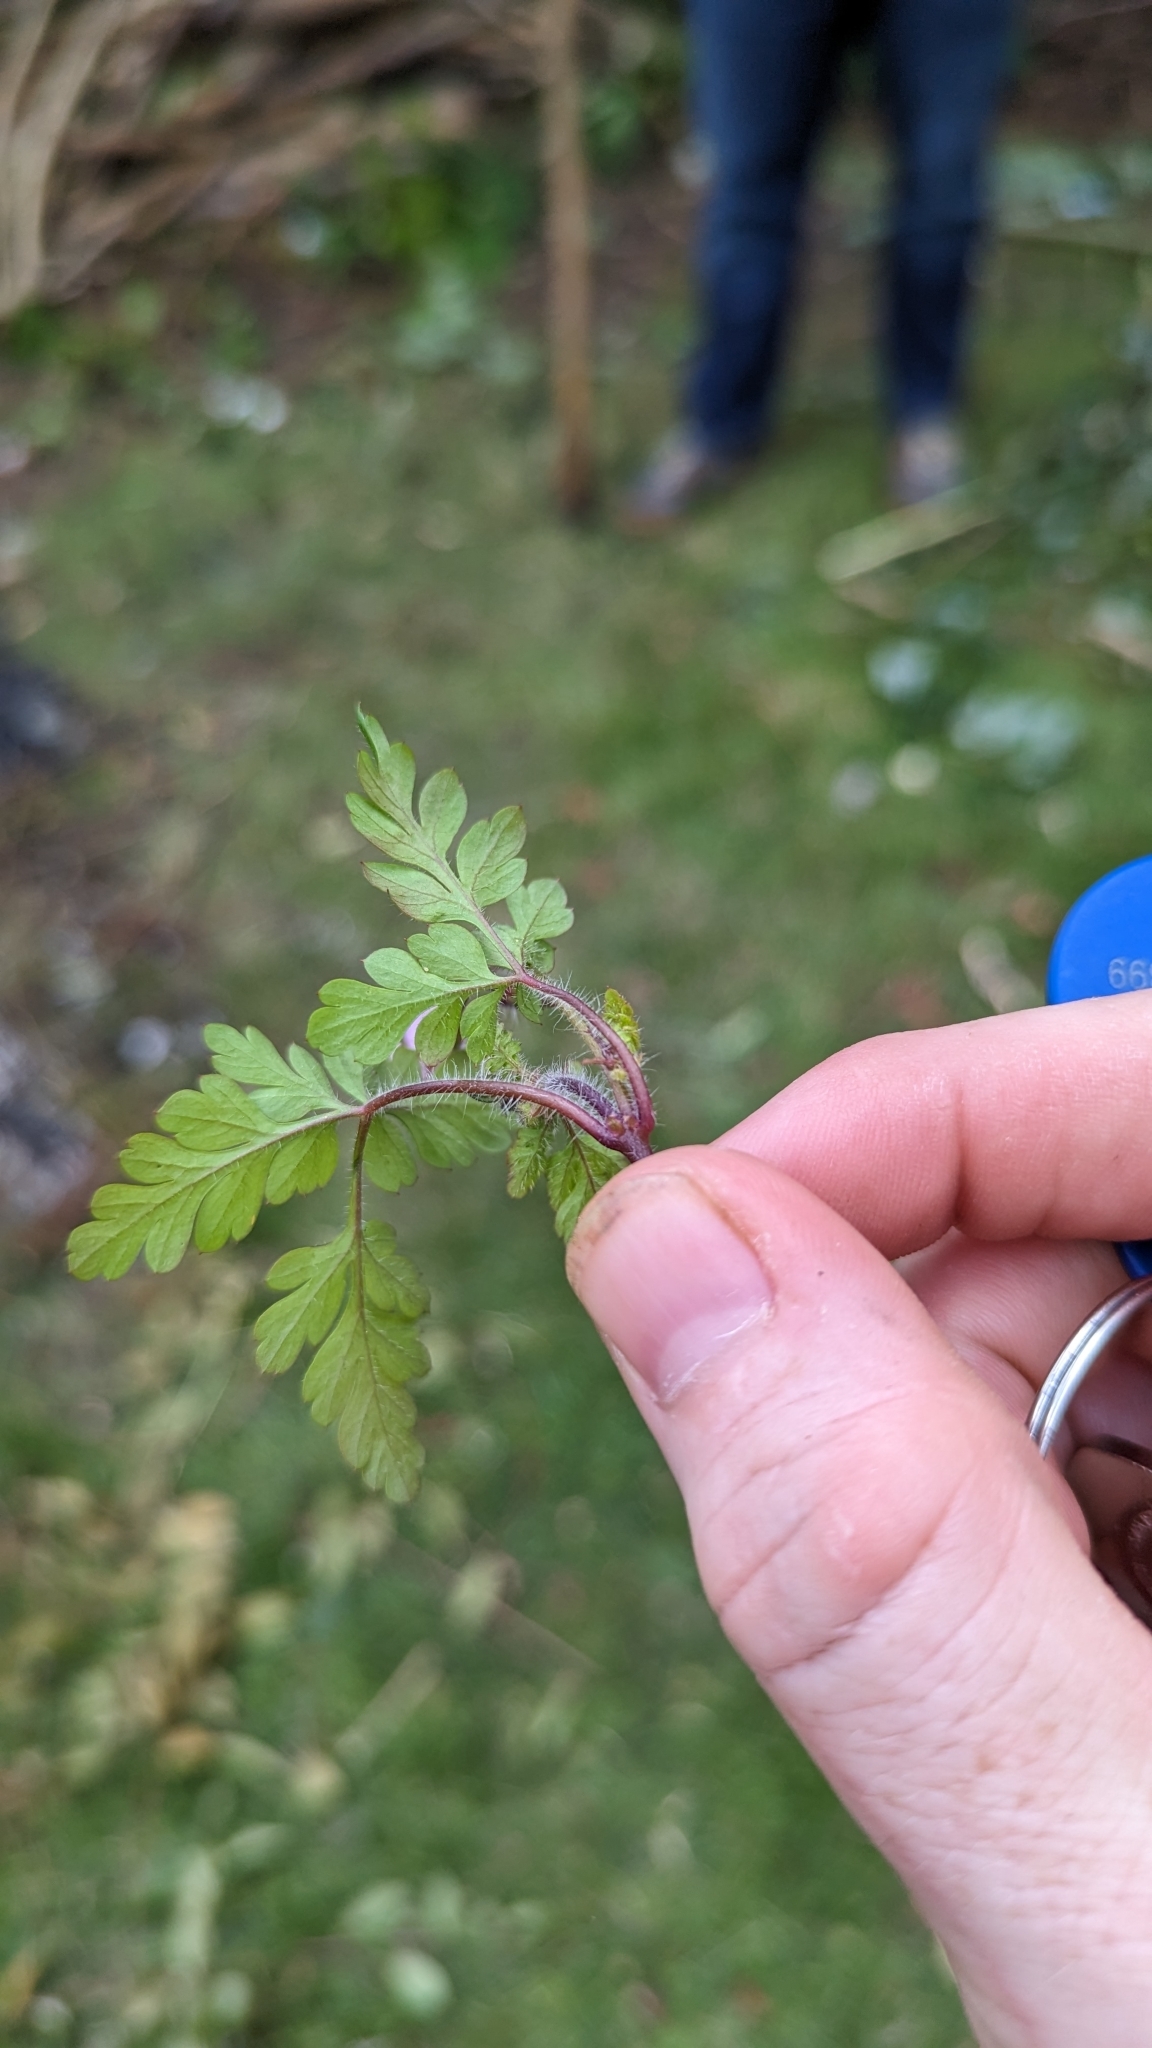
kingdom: Plantae
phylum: Tracheophyta
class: Magnoliopsida
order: Geraniales
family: Geraniaceae
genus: Geranium
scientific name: Geranium robertianum
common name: Herb-robert
